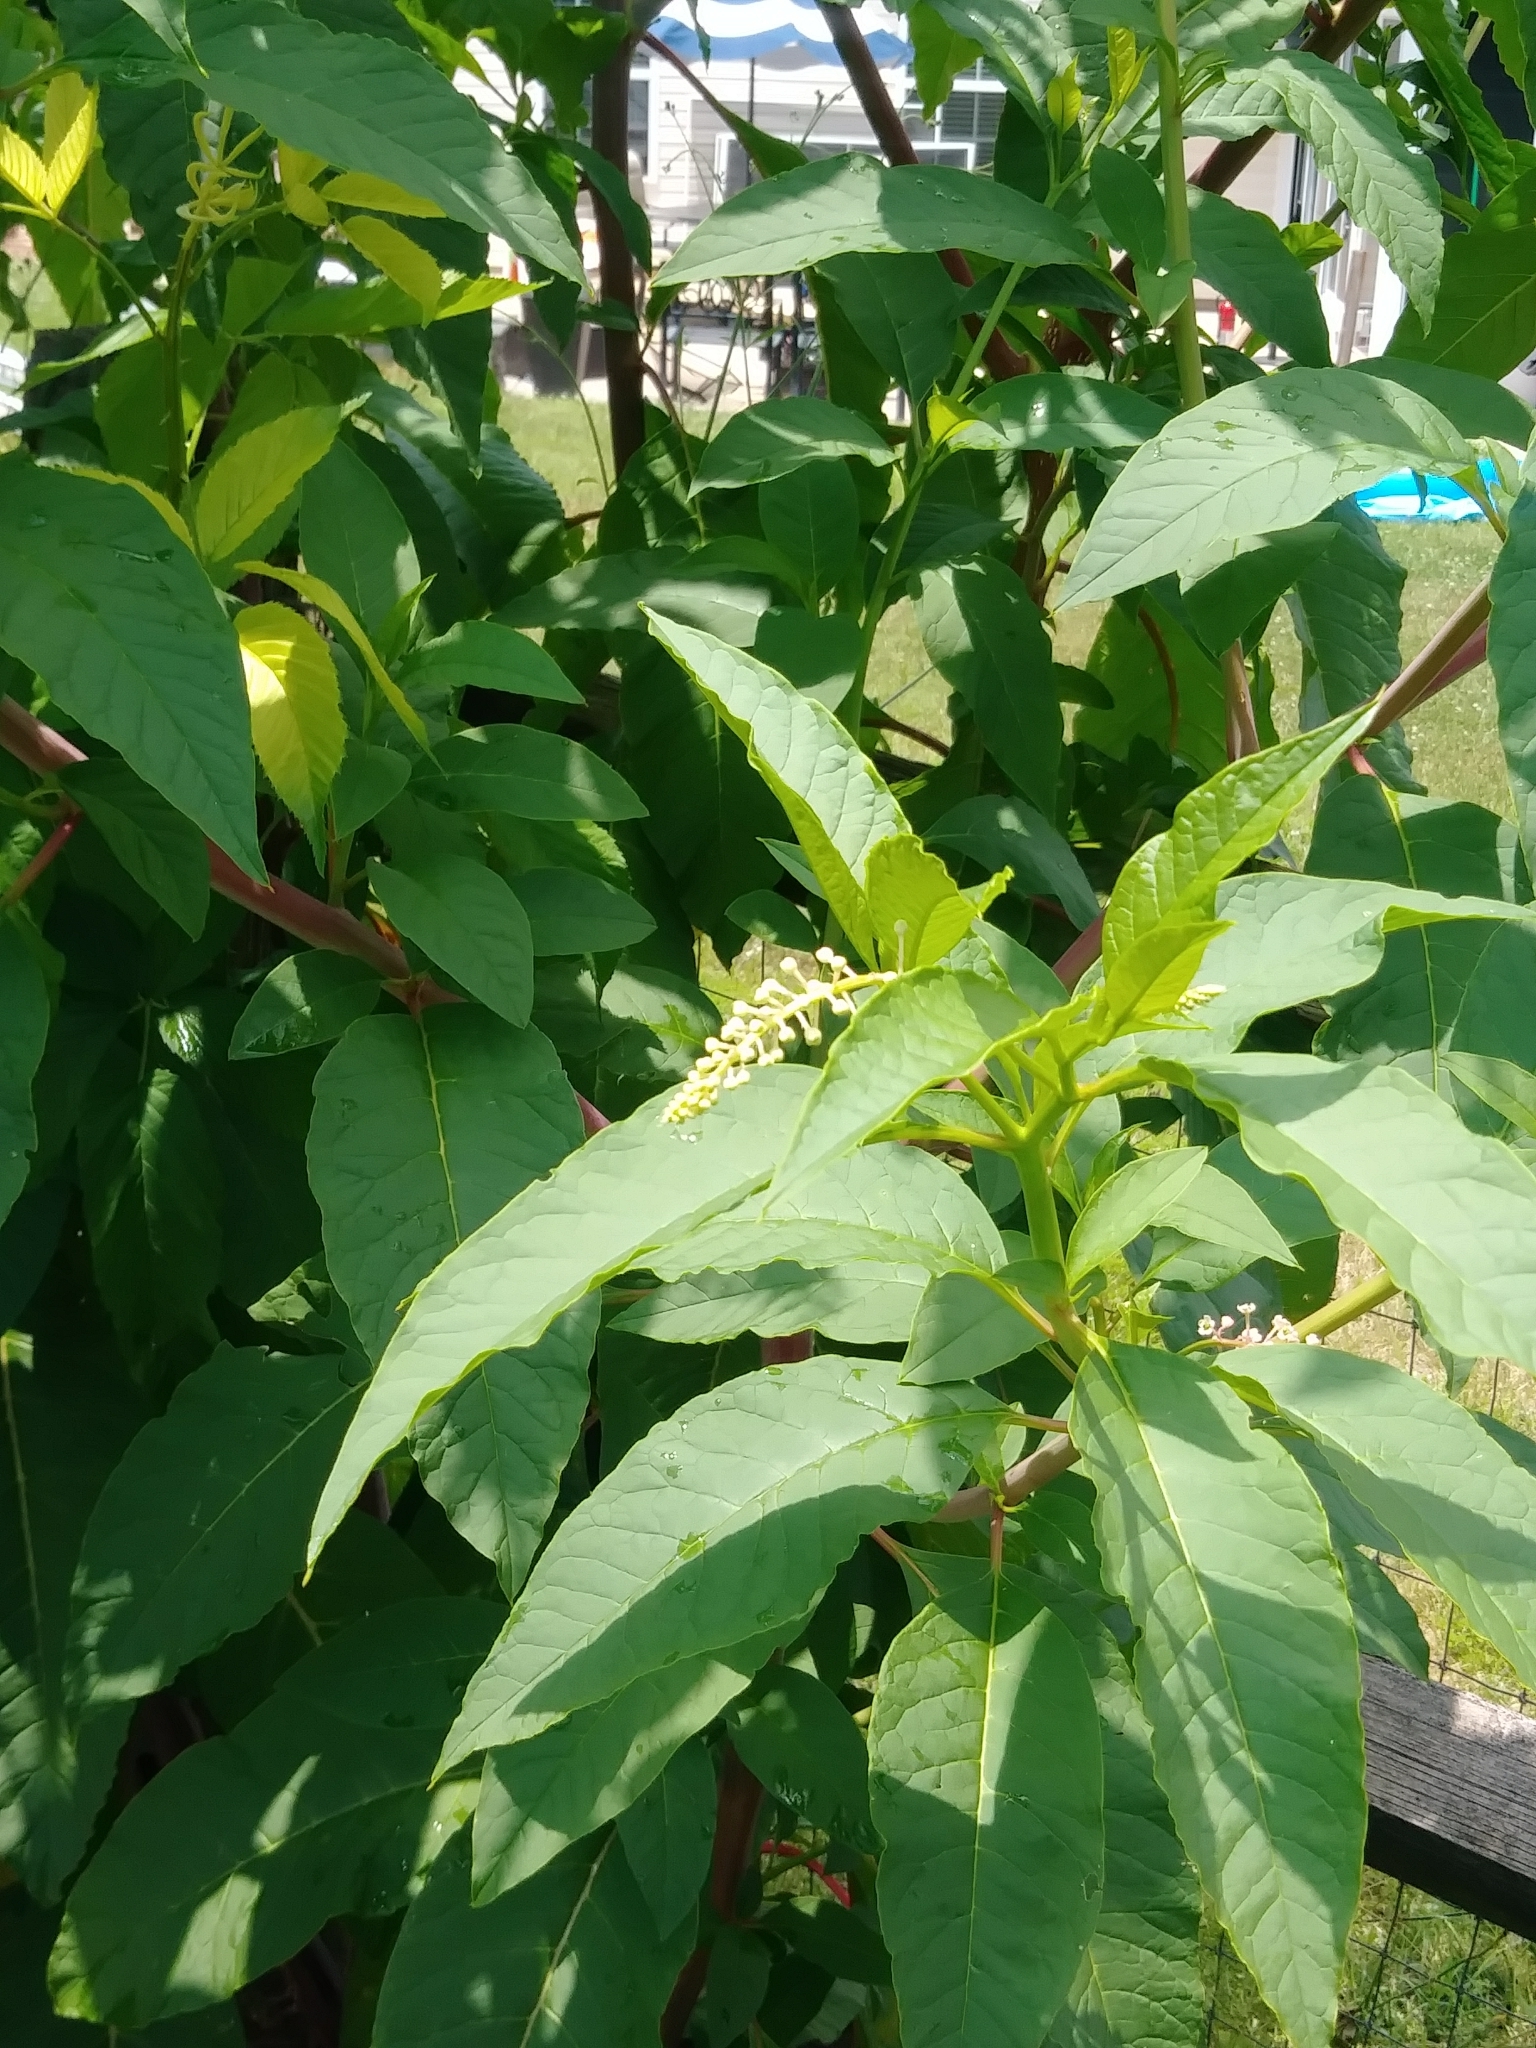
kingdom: Plantae
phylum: Tracheophyta
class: Magnoliopsida
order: Caryophyllales
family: Phytolaccaceae
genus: Phytolacca
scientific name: Phytolacca americana
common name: American pokeweed
